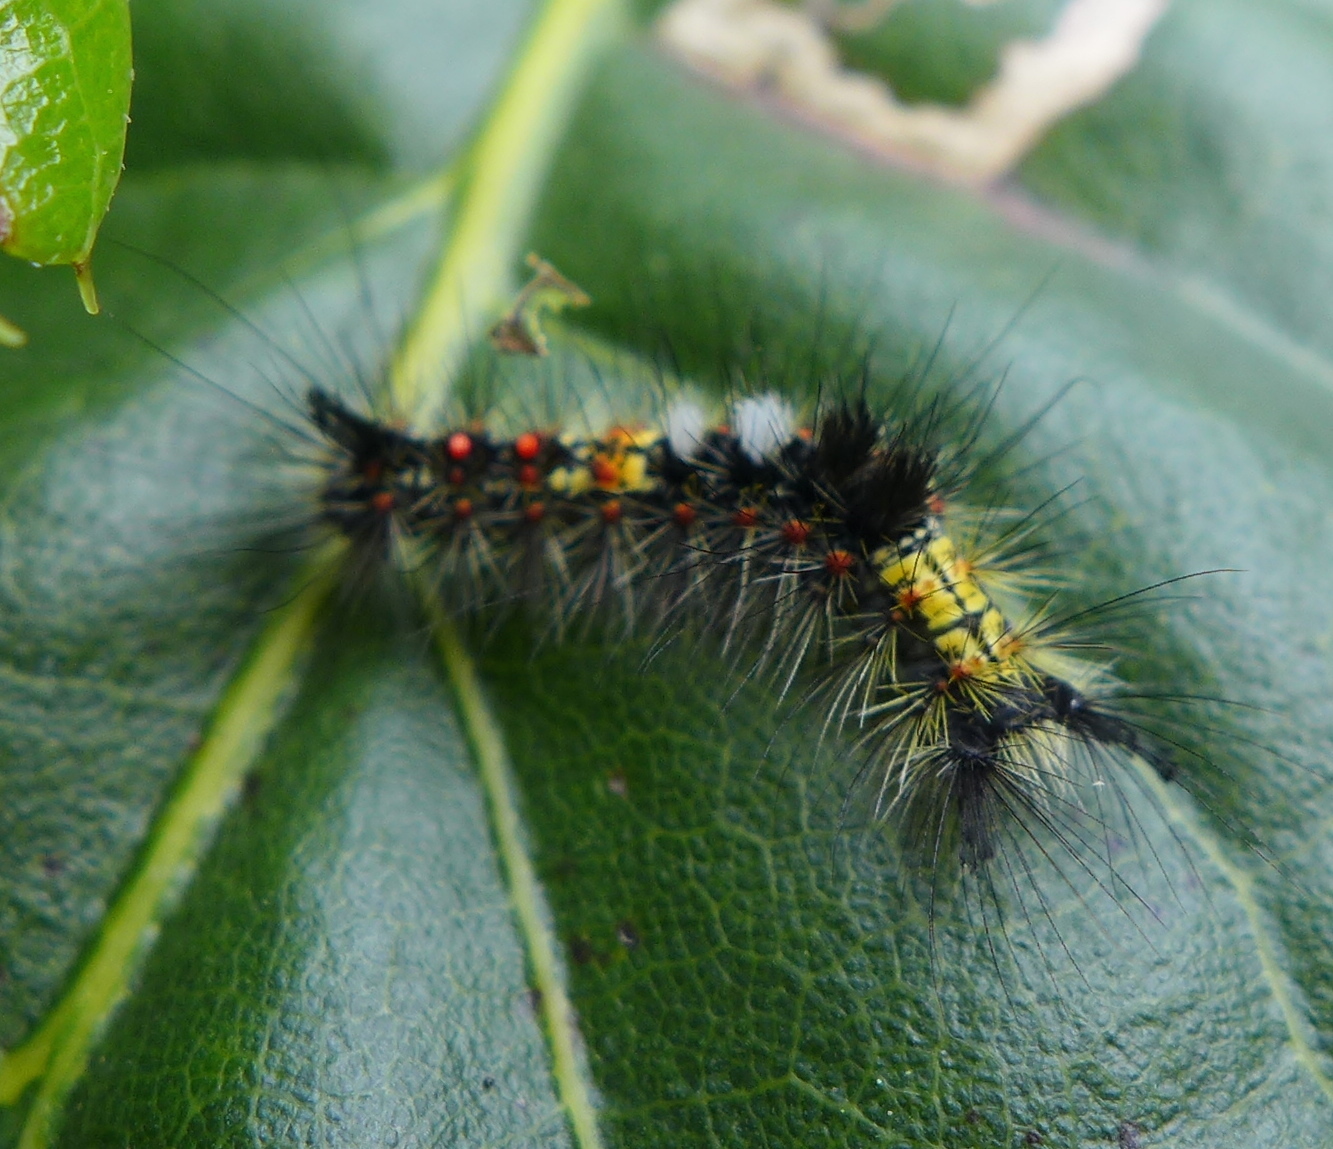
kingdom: Animalia
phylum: Arthropoda
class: Insecta
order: Lepidoptera
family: Erebidae
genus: Orgyia
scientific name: Orgyia vetusta
